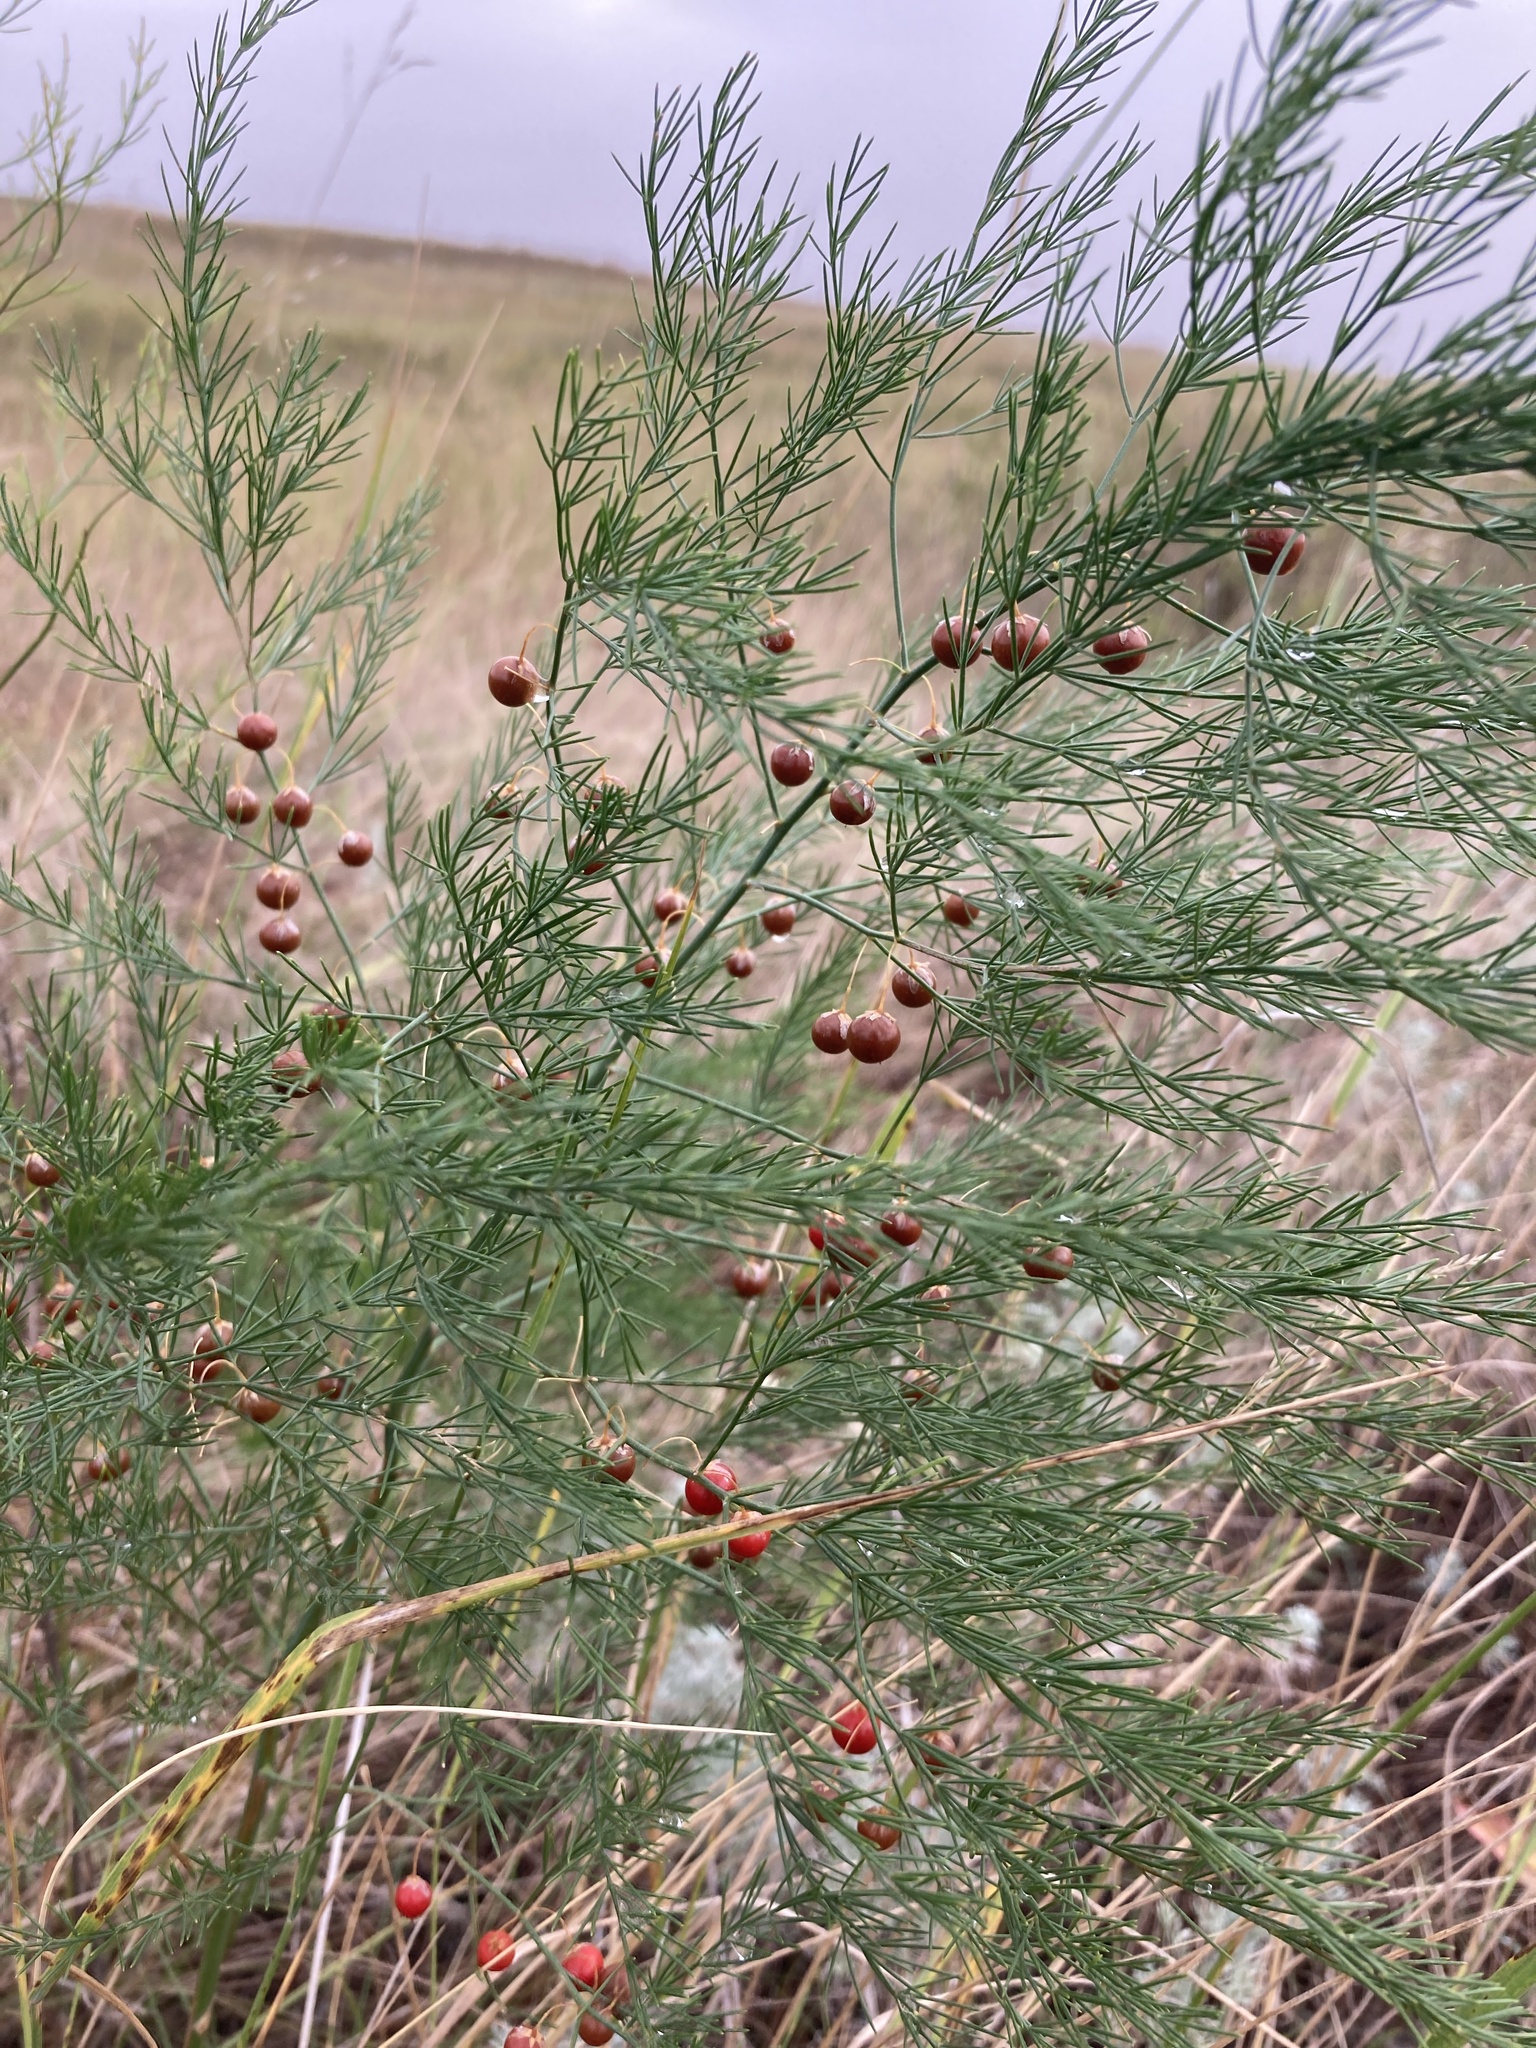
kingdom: Plantae
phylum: Tracheophyta
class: Liliopsida
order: Asparagales
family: Asparagaceae
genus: Asparagus
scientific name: Asparagus officinalis
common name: Garden asparagus
